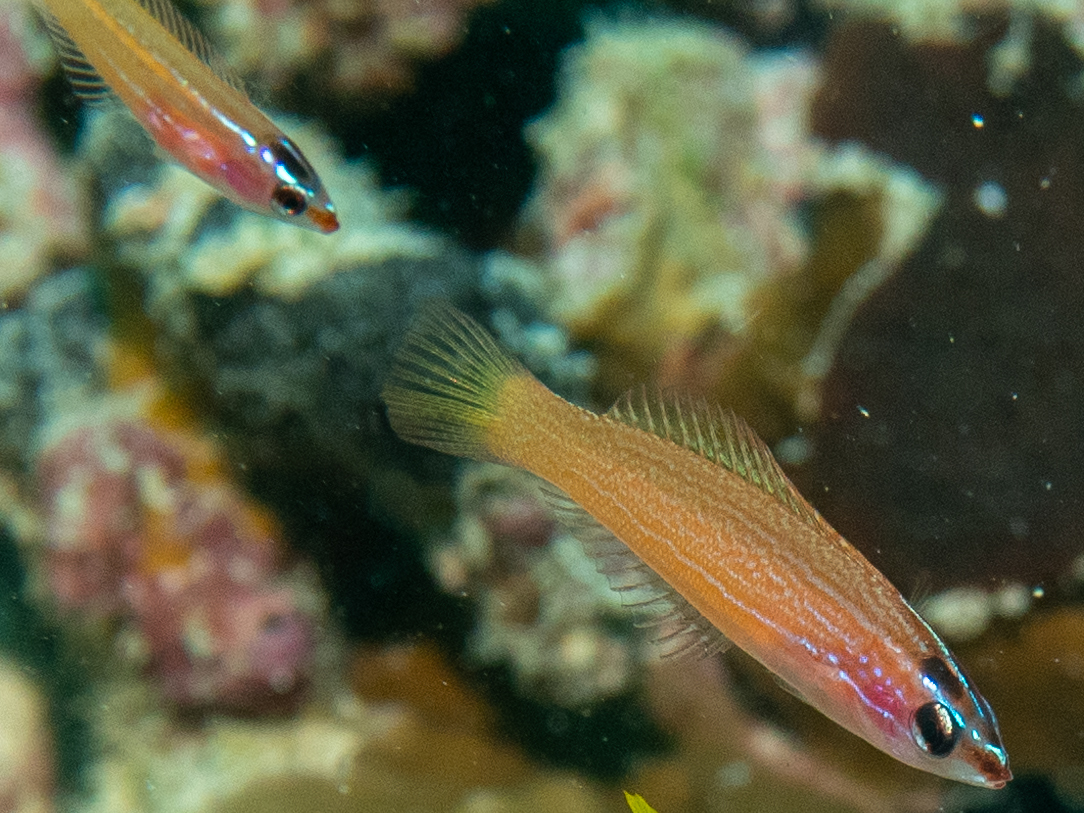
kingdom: Animalia
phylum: Chordata
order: Perciformes
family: Labridae
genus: Pseudocoris
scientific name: Pseudocoris yamashiroi
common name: Redspot wrasse
